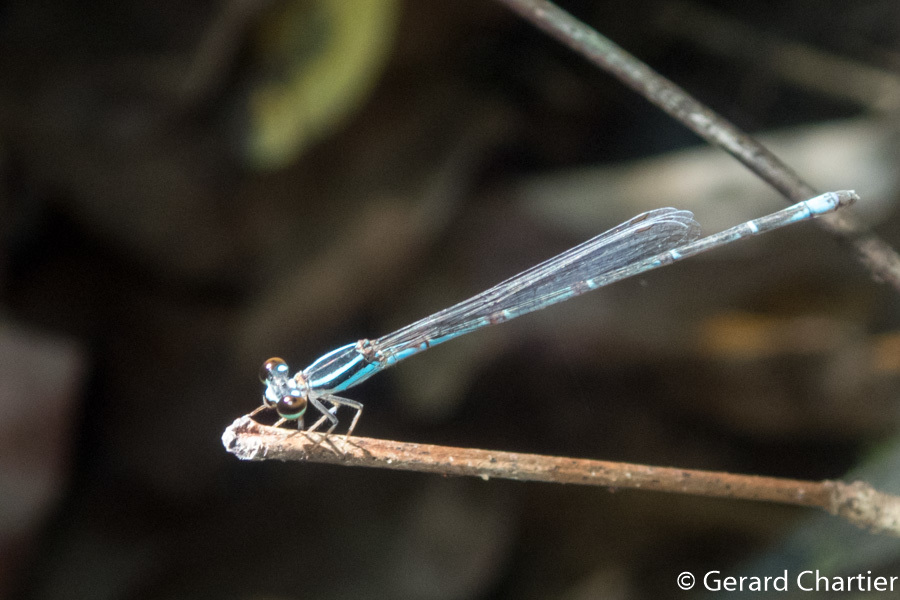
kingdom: Animalia
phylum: Arthropoda
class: Insecta
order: Odonata
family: Coenagrionidae
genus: Argiocnemis
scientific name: Argiocnemis rubescens
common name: Red-tipped shadefly
